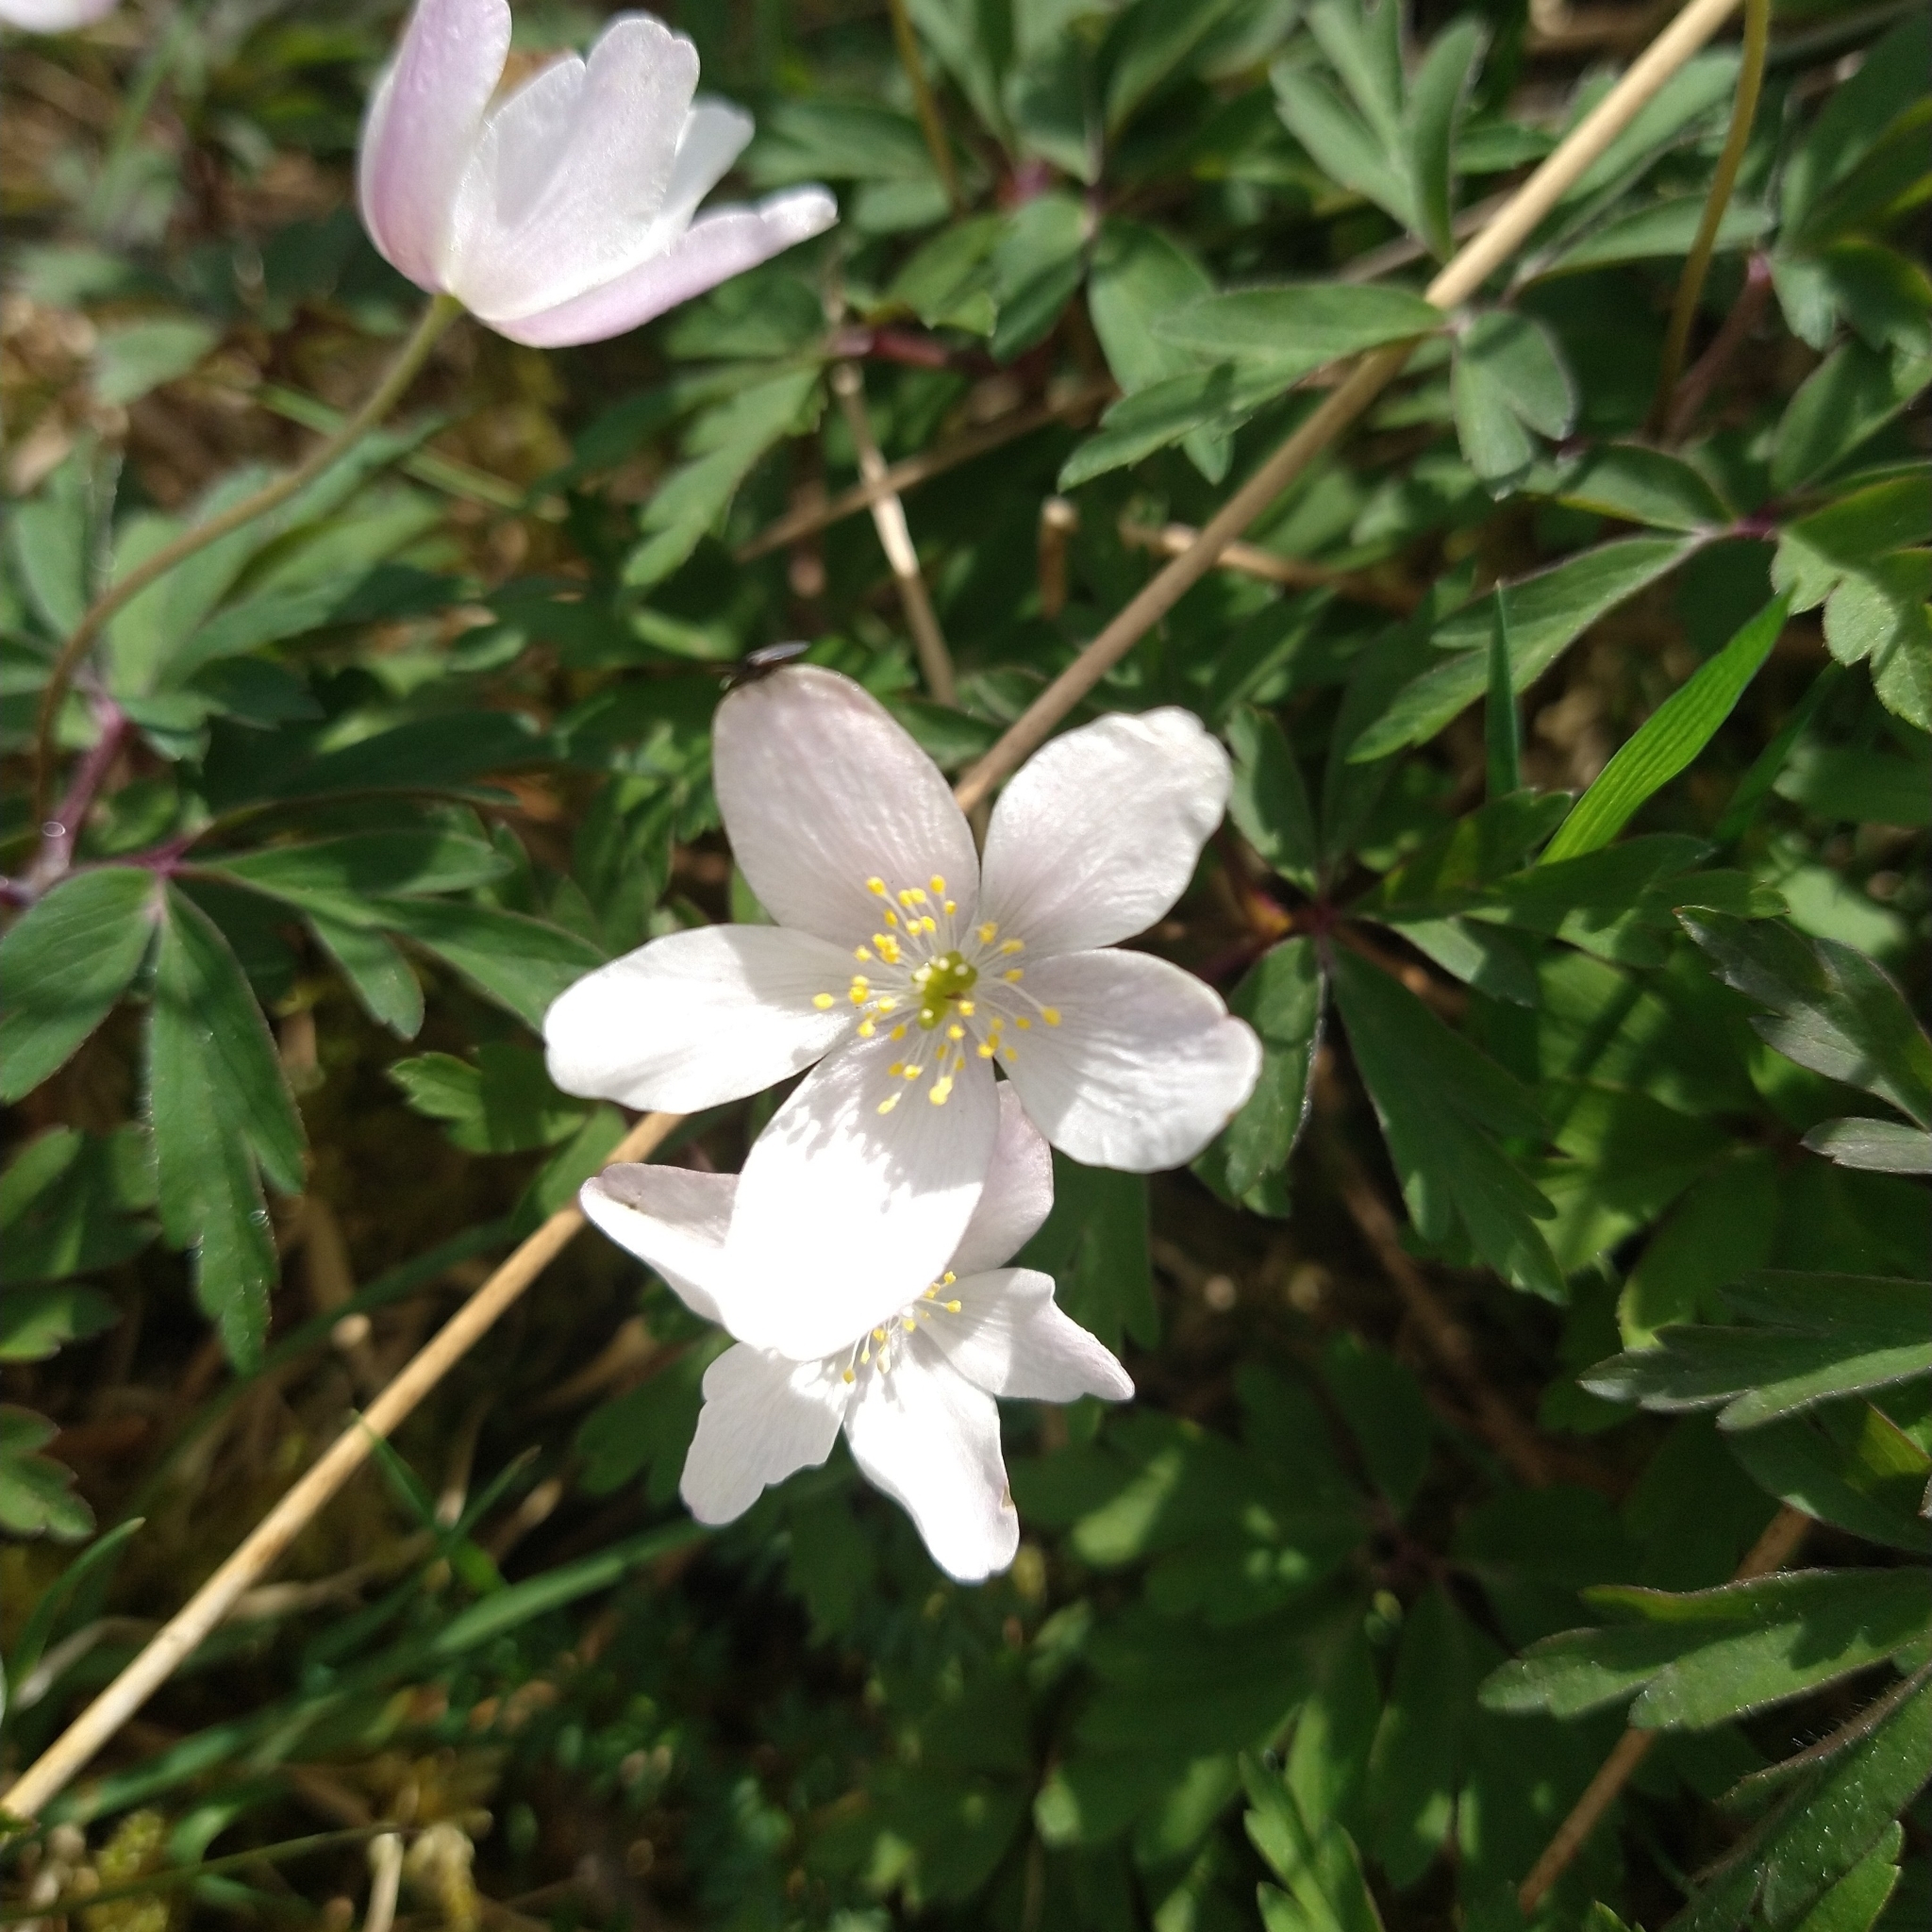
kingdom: Plantae
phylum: Tracheophyta
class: Magnoliopsida
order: Ranunculales
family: Ranunculaceae
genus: Anemone
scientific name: Anemone nemorosa
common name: Wood anemone
